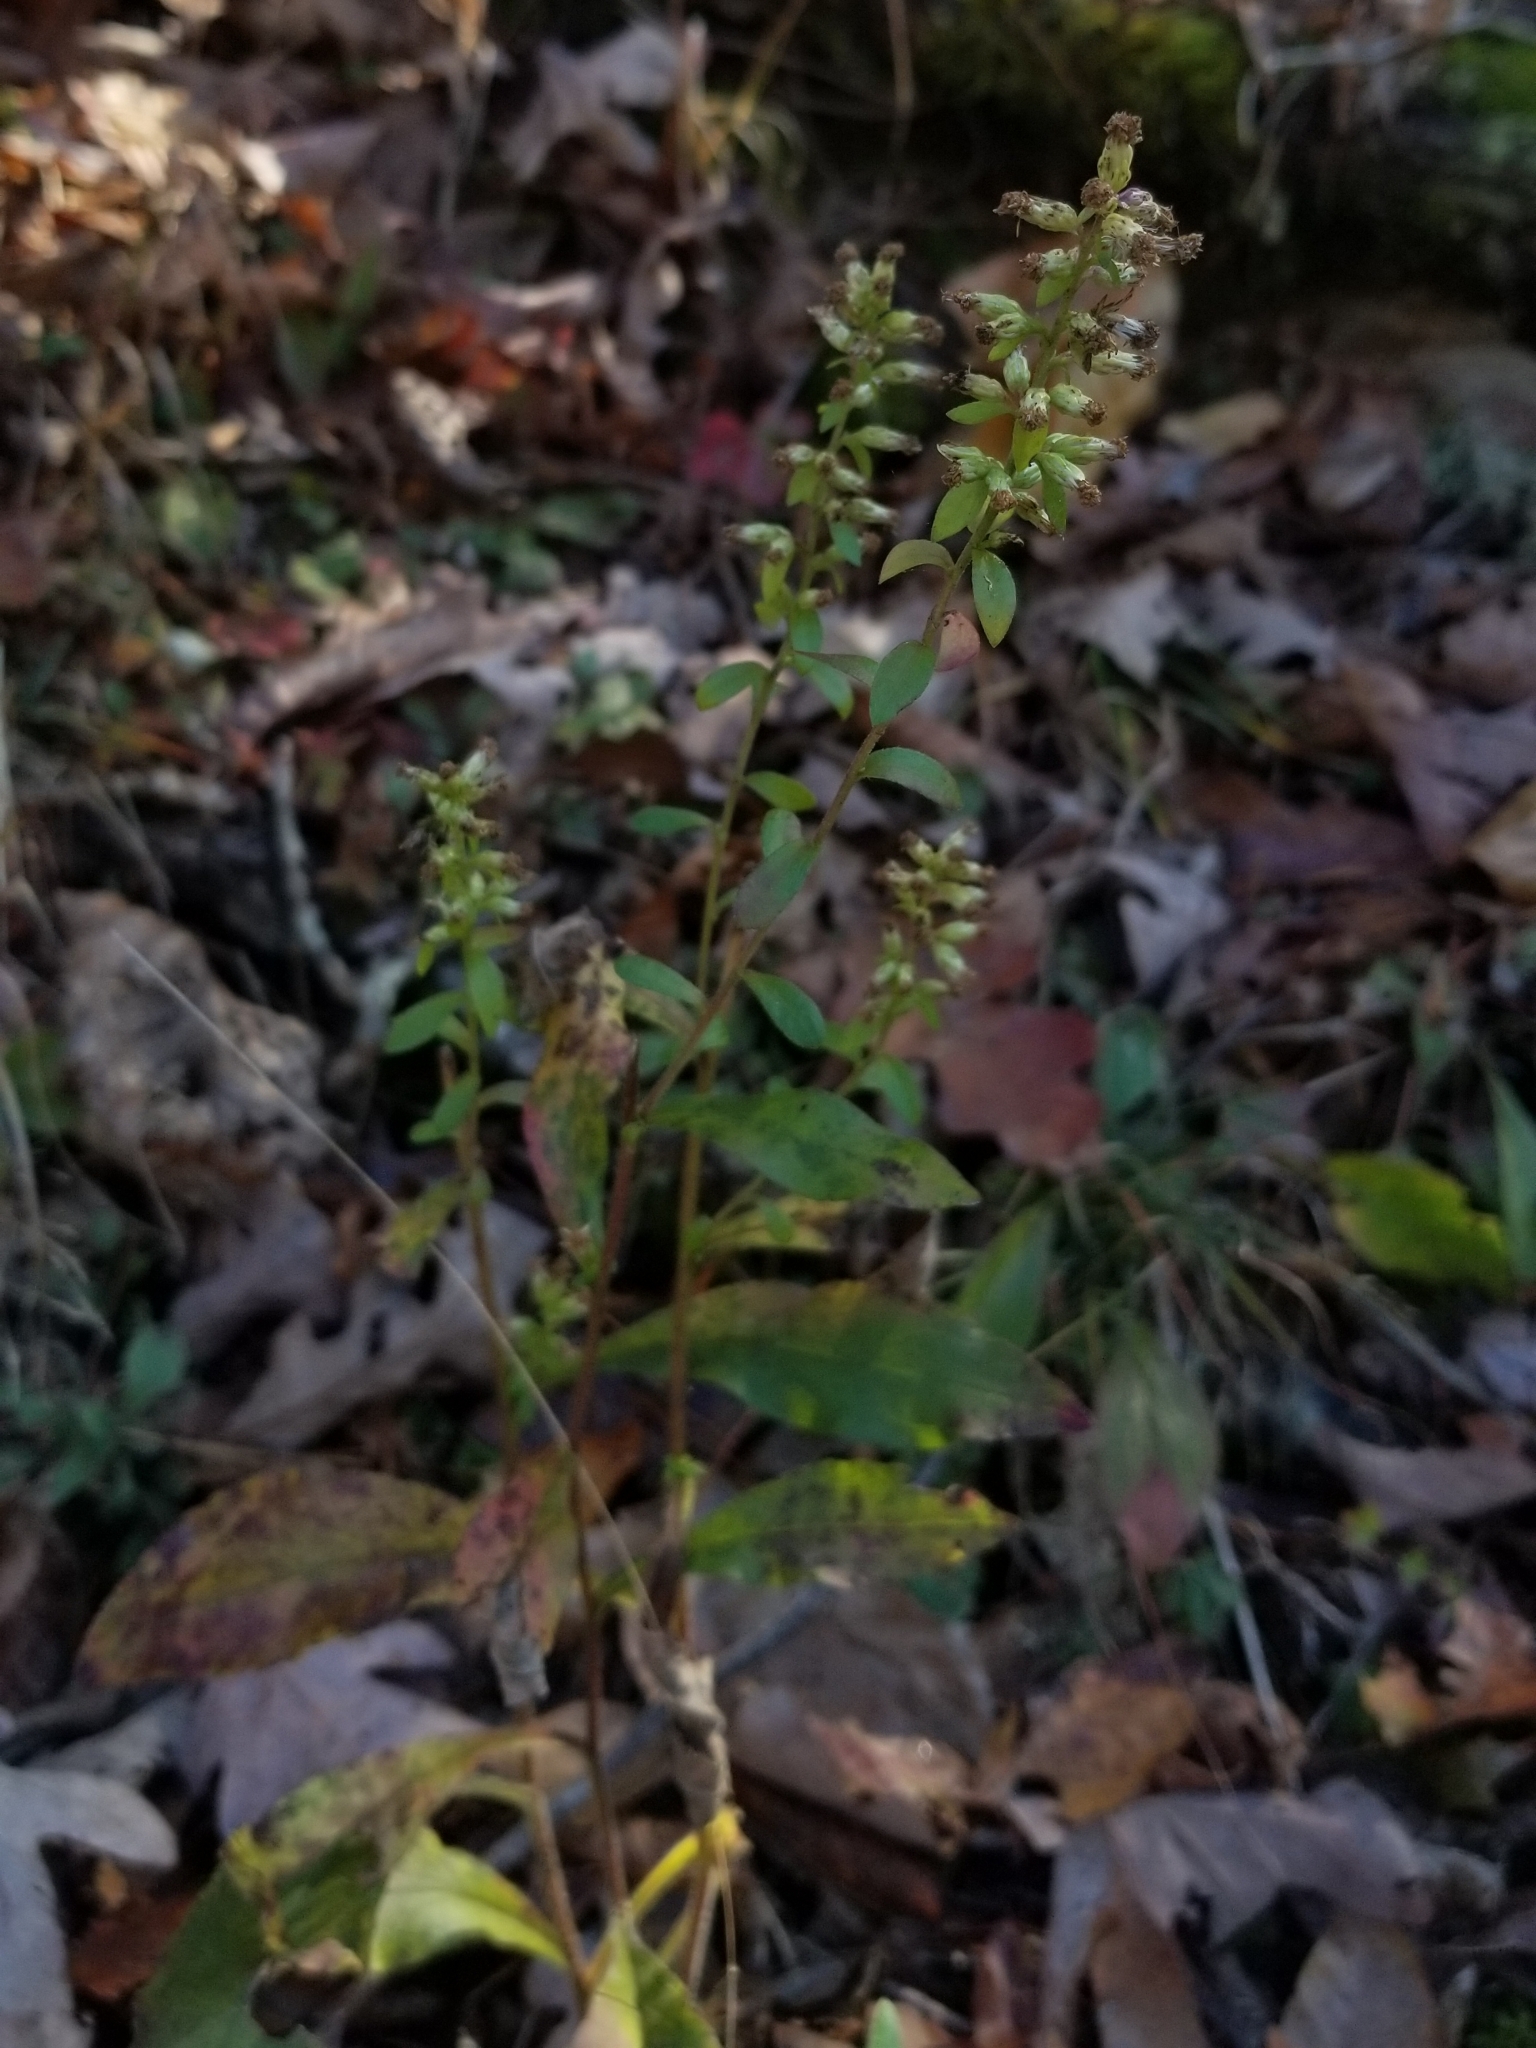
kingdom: Plantae
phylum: Tracheophyta
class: Magnoliopsida
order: Asterales
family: Asteraceae
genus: Solidago
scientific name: Solidago bicolor
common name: Silverrod
